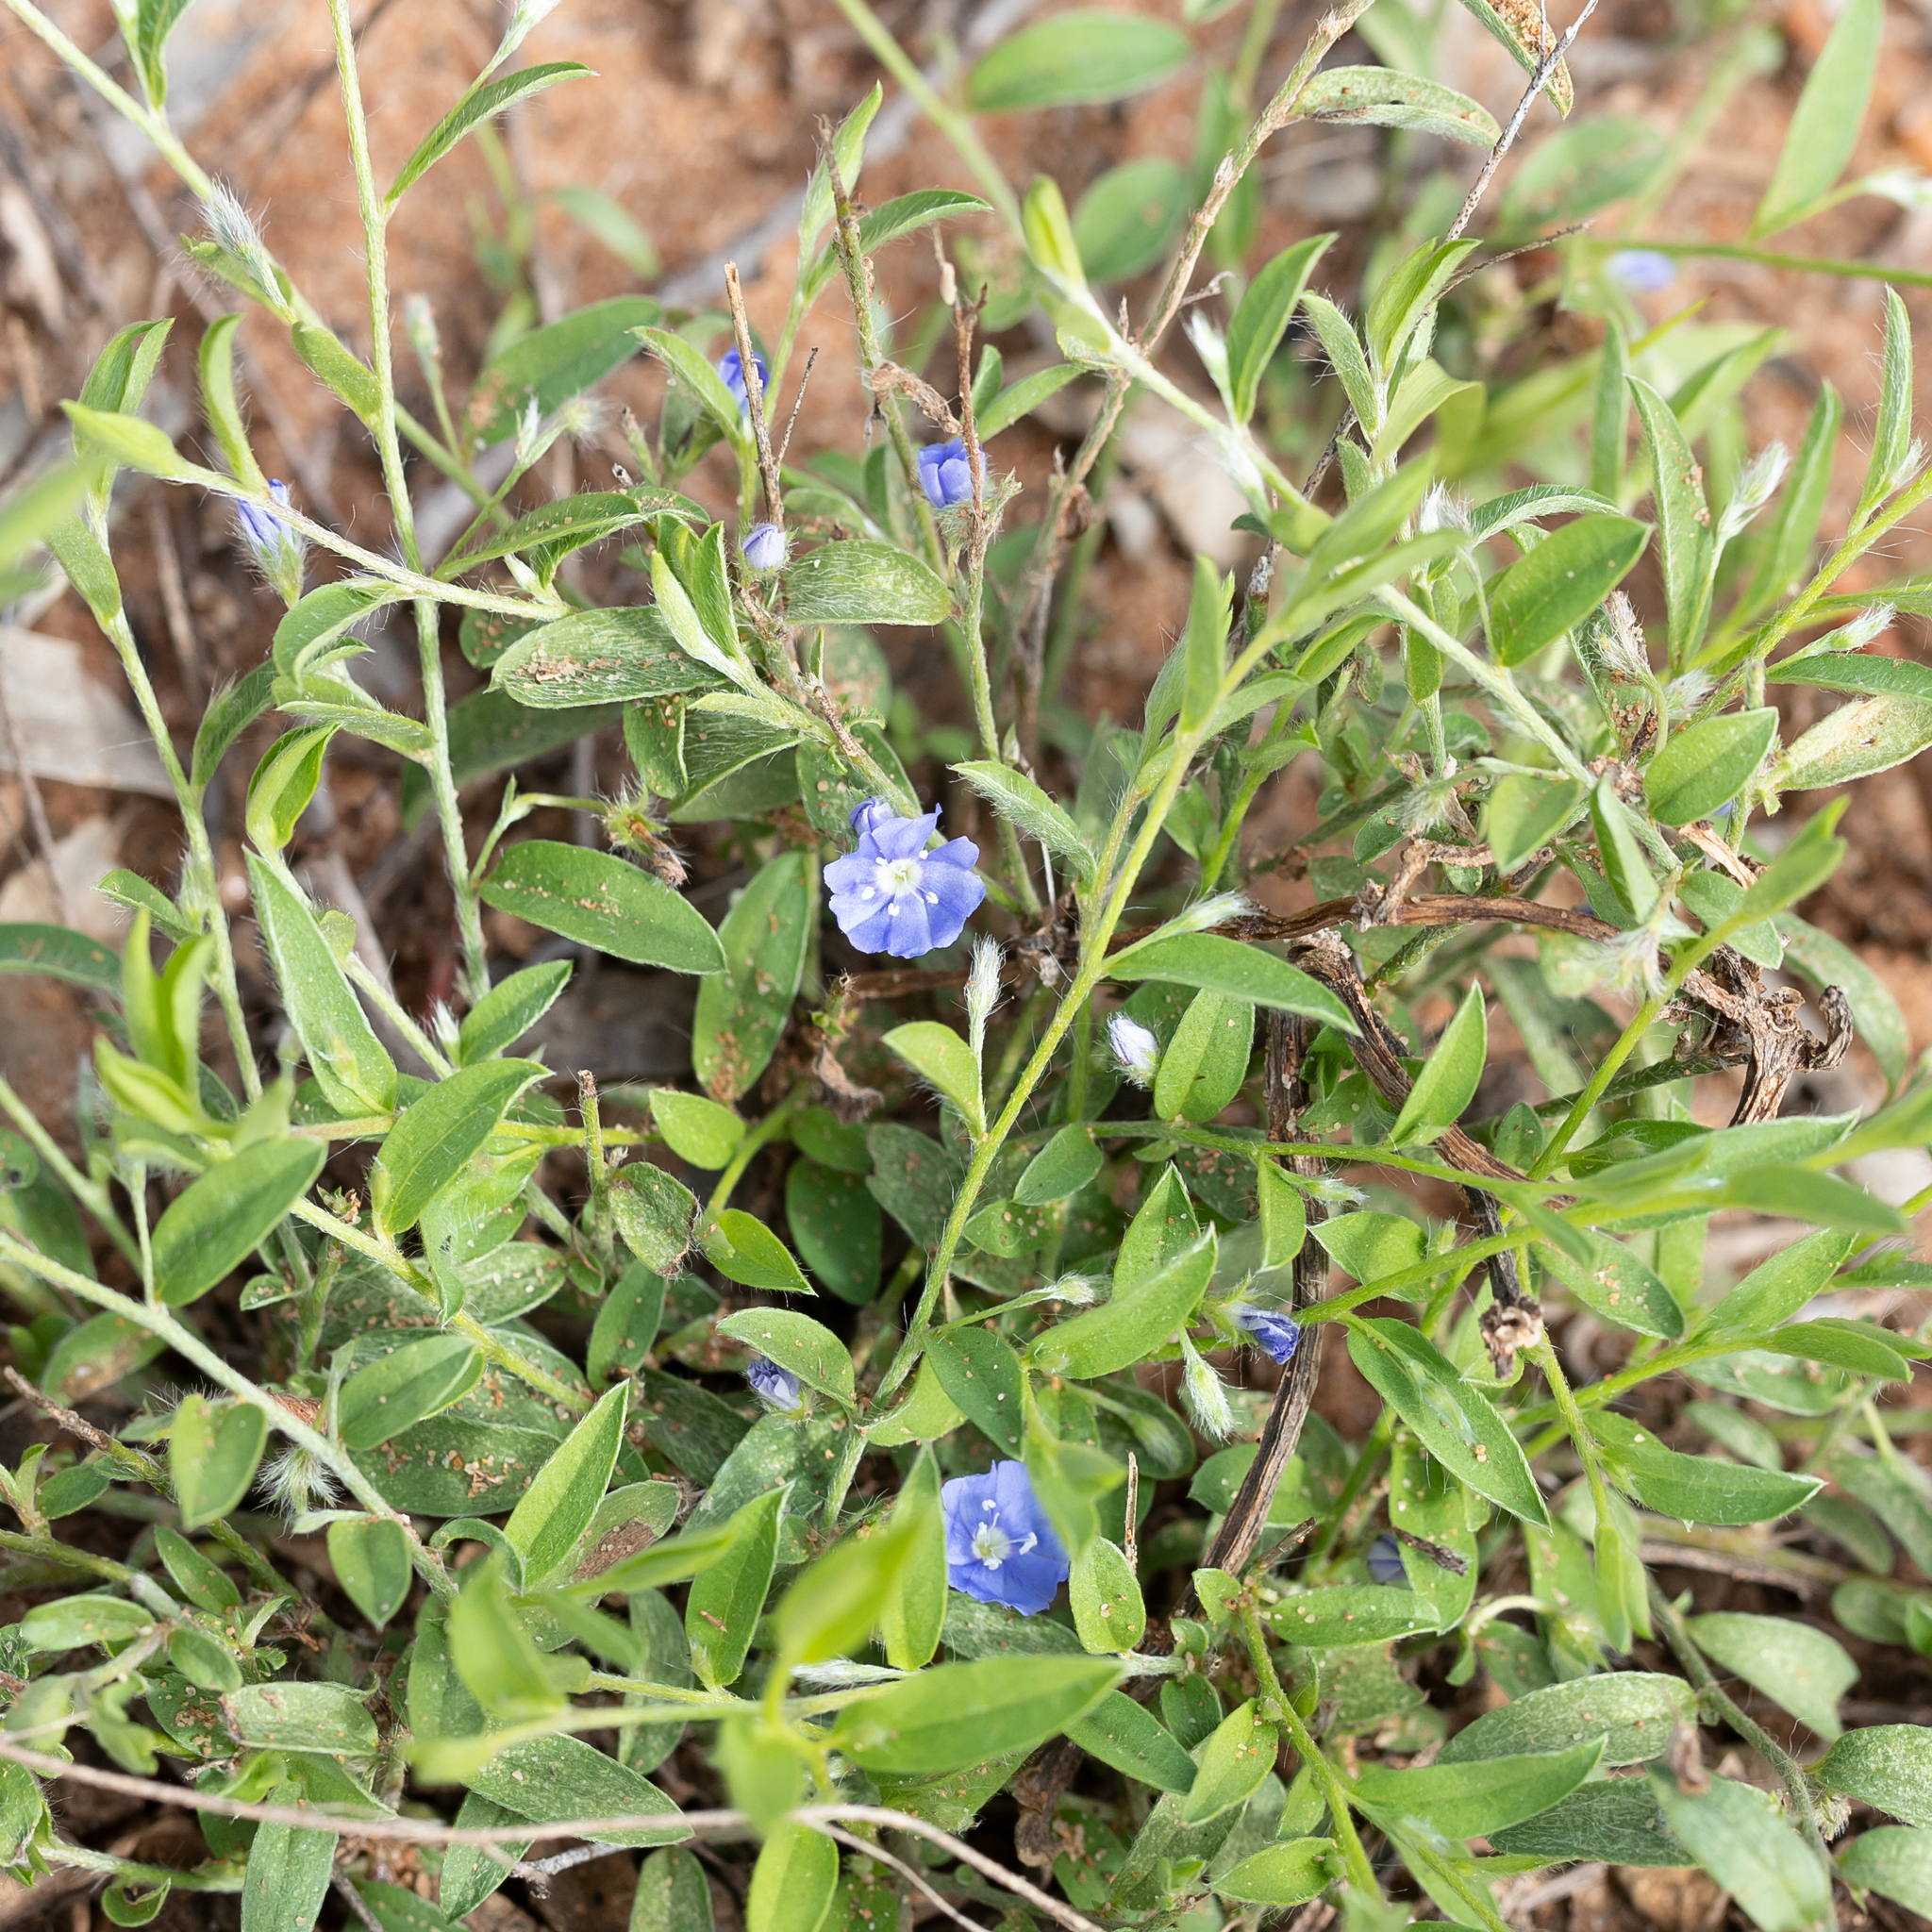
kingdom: Plantae
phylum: Tracheophyta
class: Magnoliopsida
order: Solanales
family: Convolvulaceae
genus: Evolvulus
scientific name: Evolvulus alsinoides
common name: Slender dwarf morning-glory
